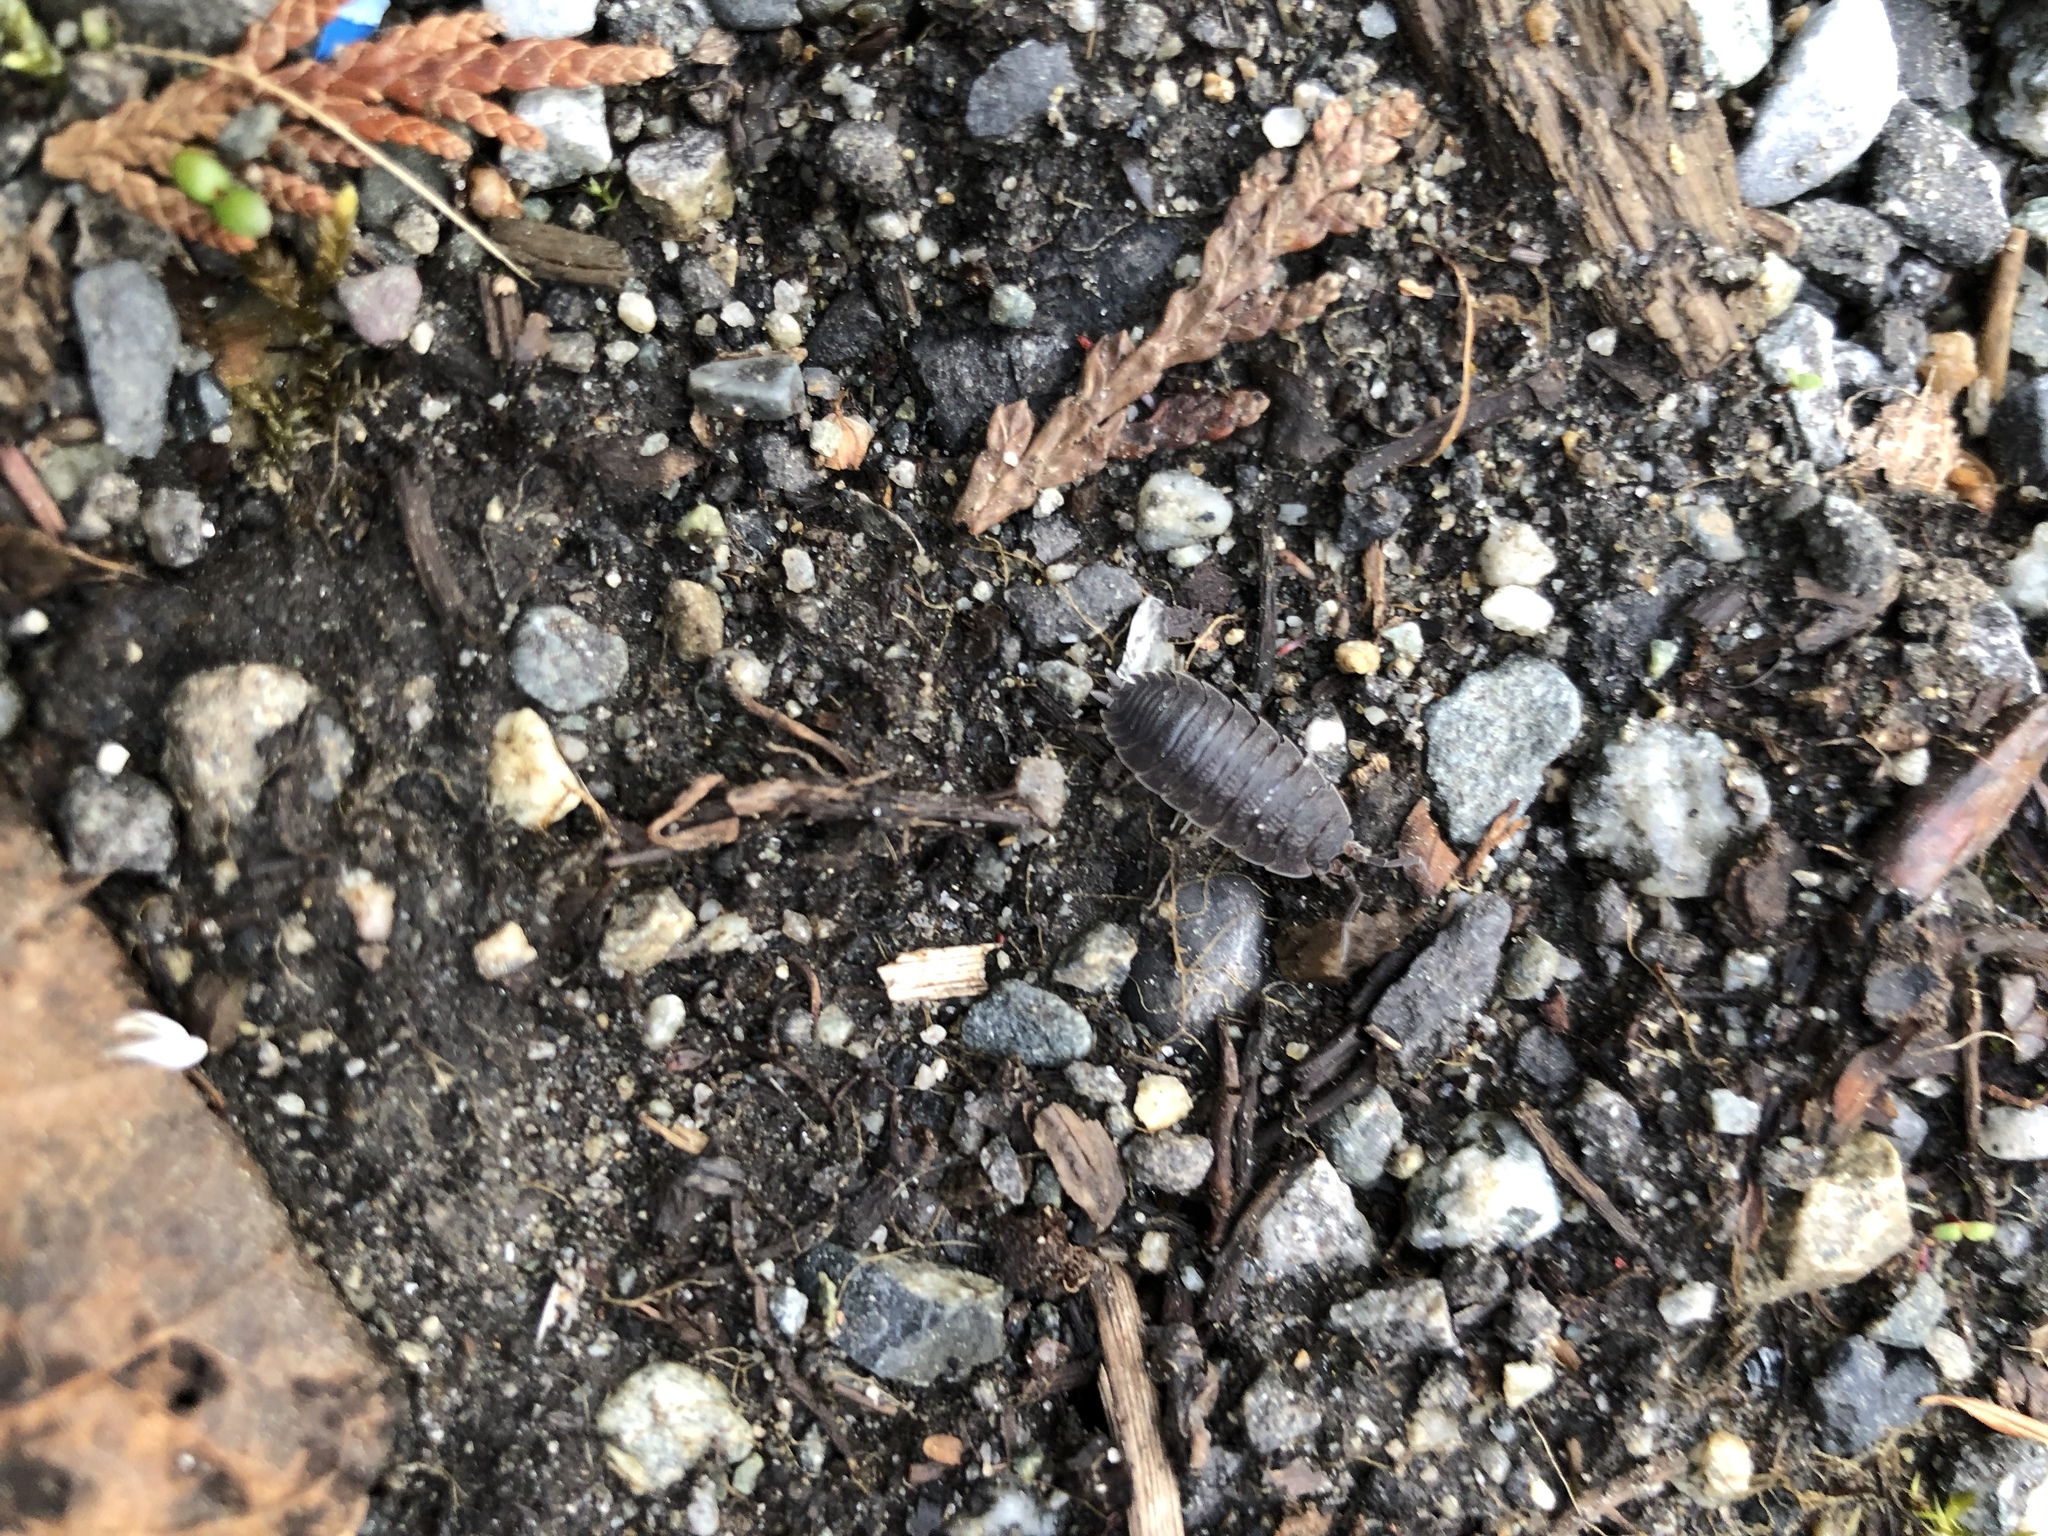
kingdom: Animalia
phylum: Arthropoda
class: Malacostraca
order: Isopoda
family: Porcellionidae
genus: Porcellio
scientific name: Porcellio scaber
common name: Common rough woodlouse
